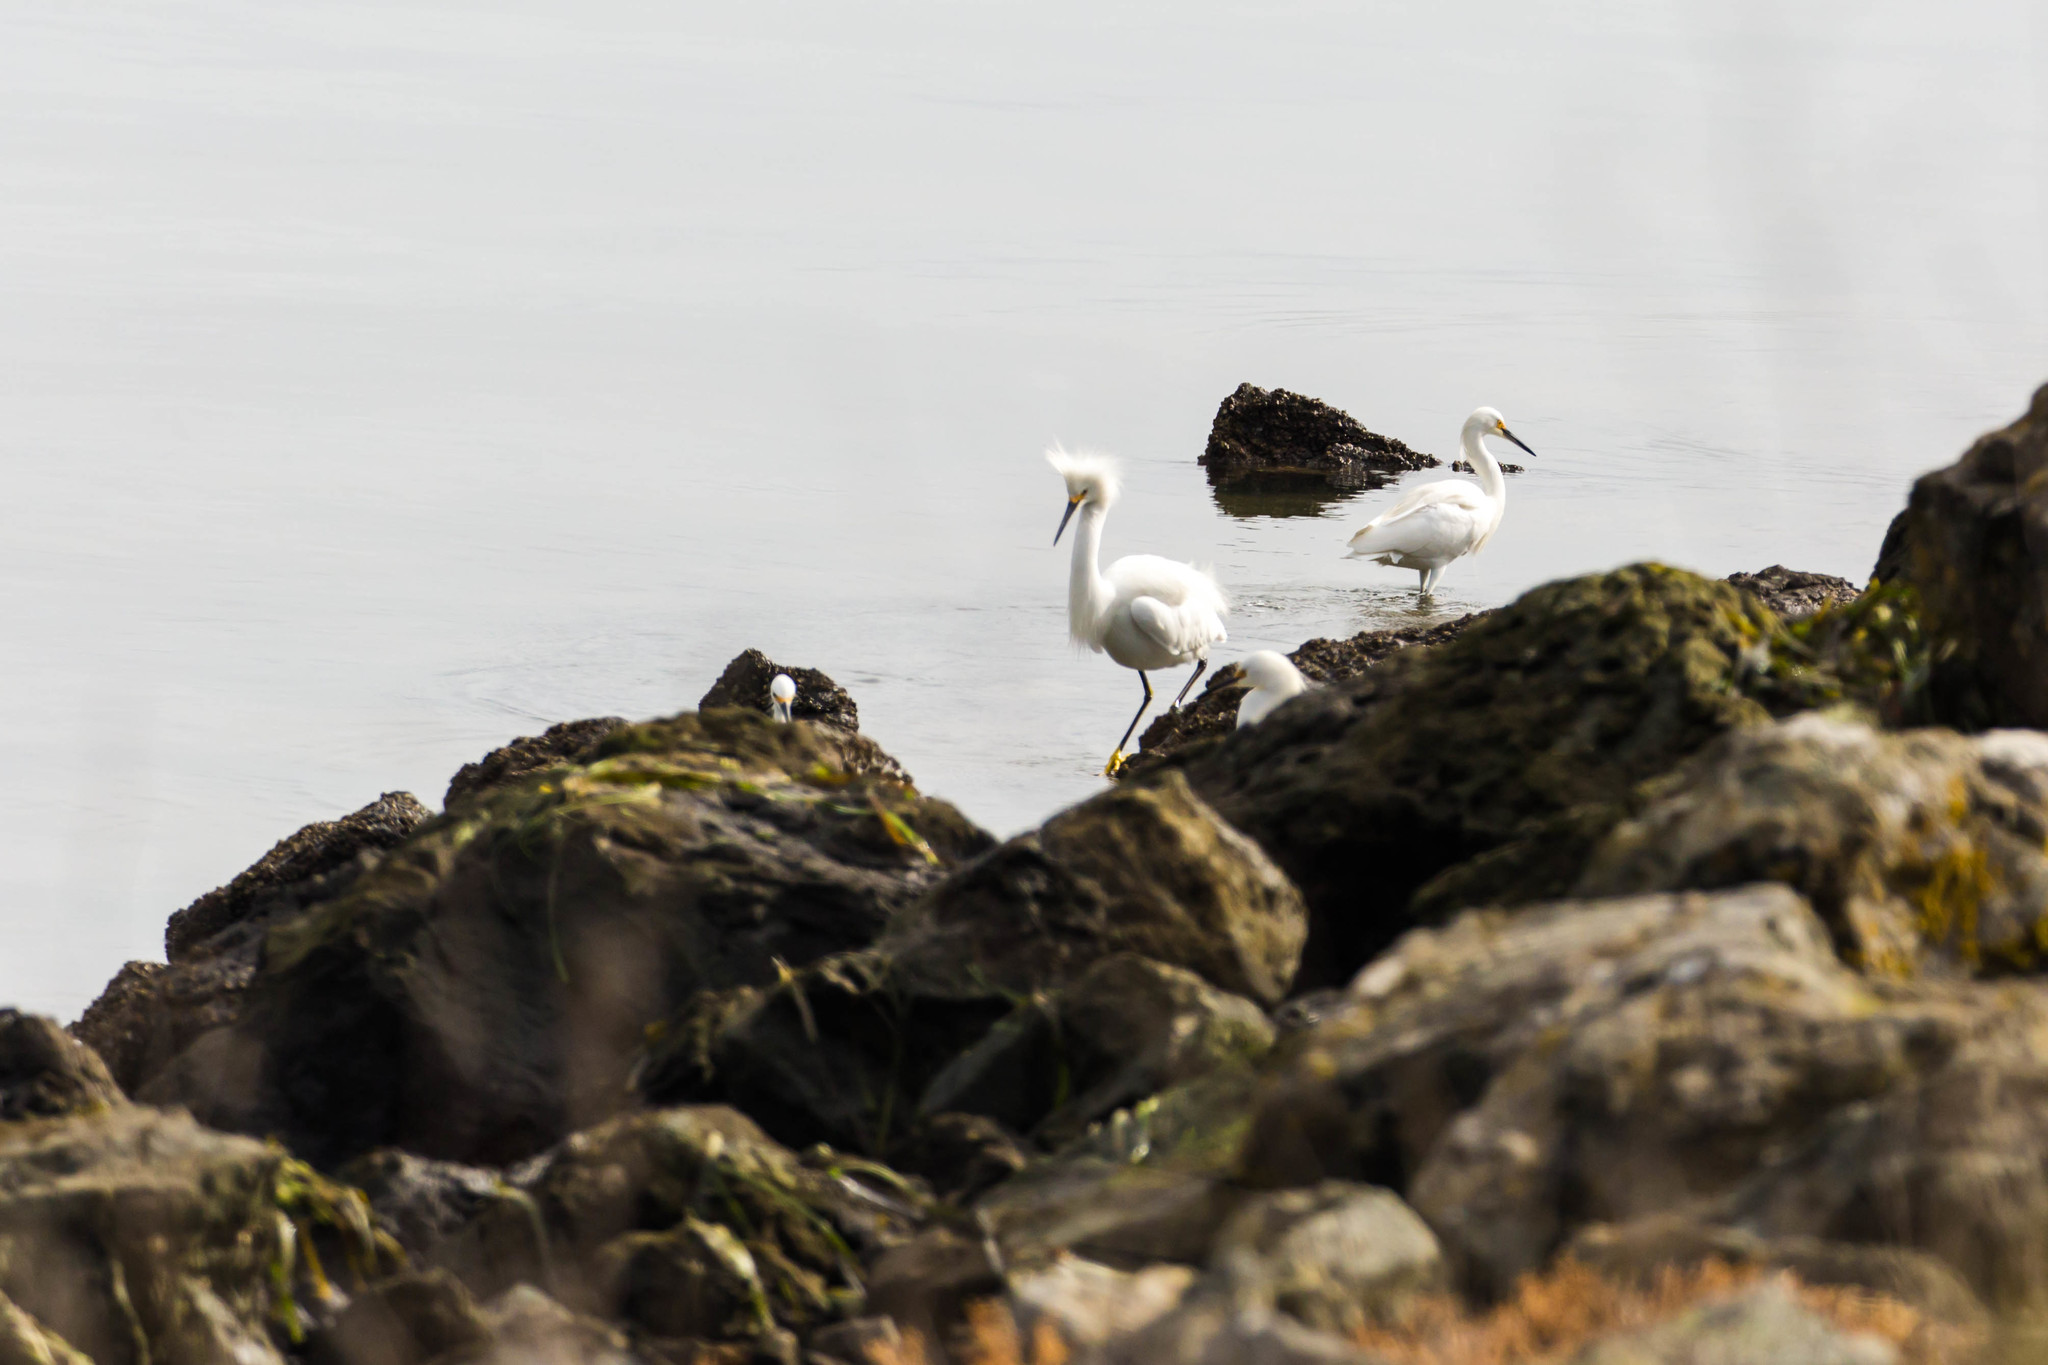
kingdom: Animalia
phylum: Chordata
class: Aves
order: Pelecaniformes
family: Ardeidae
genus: Egretta
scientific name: Egretta thula
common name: Snowy egret
